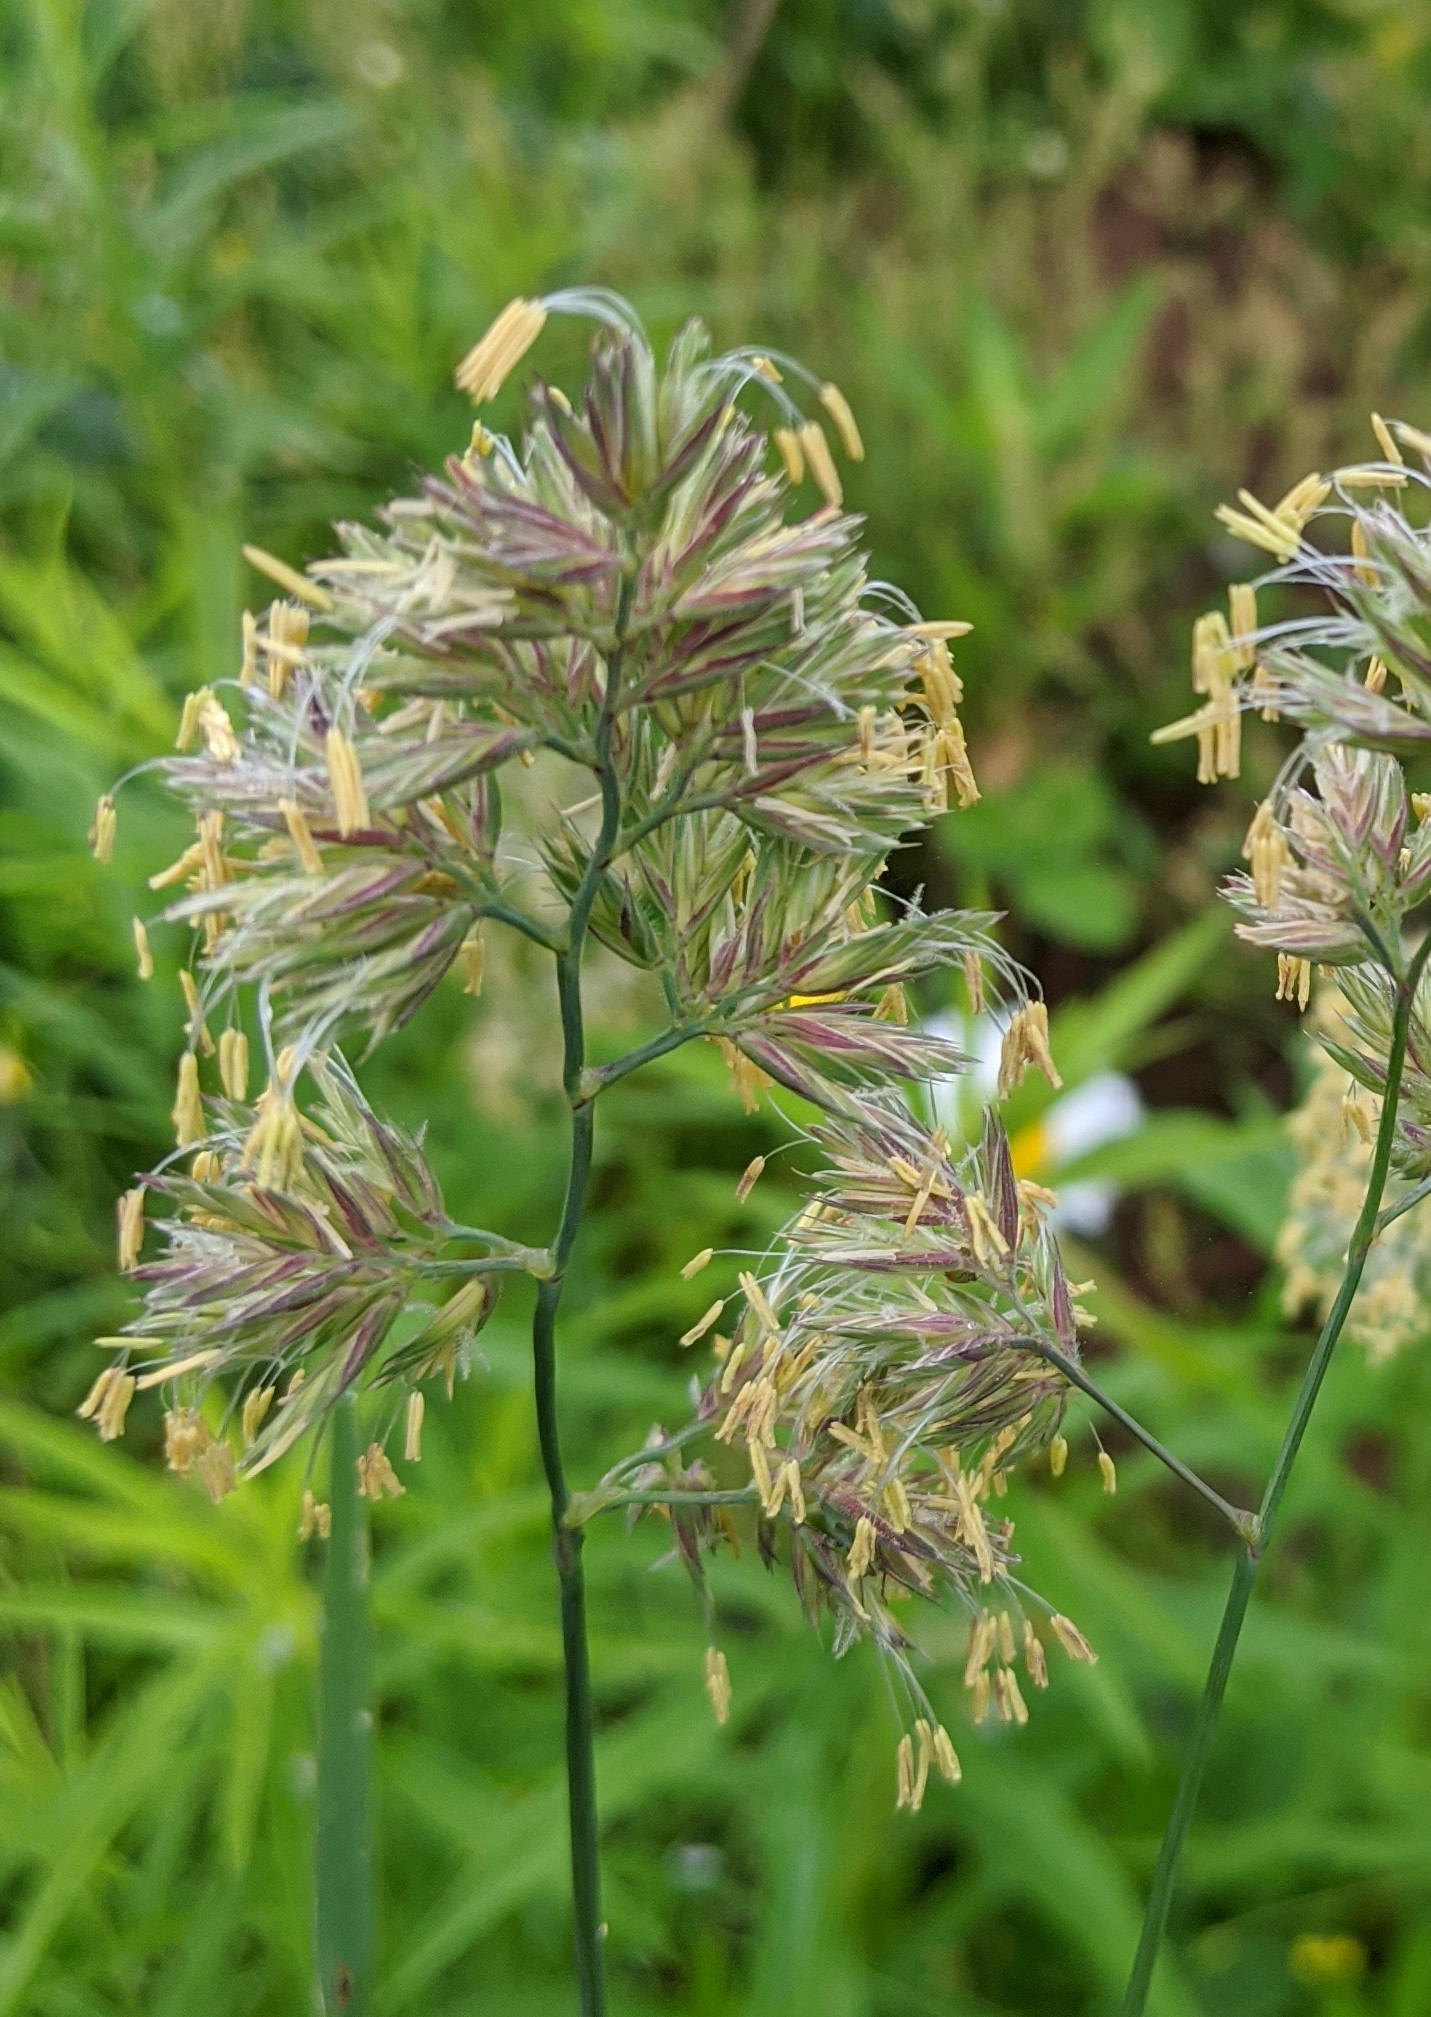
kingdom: Plantae
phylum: Tracheophyta
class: Liliopsida
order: Poales
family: Poaceae
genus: Dactylis
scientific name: Dactylis glomerata
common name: Orchardgrass
